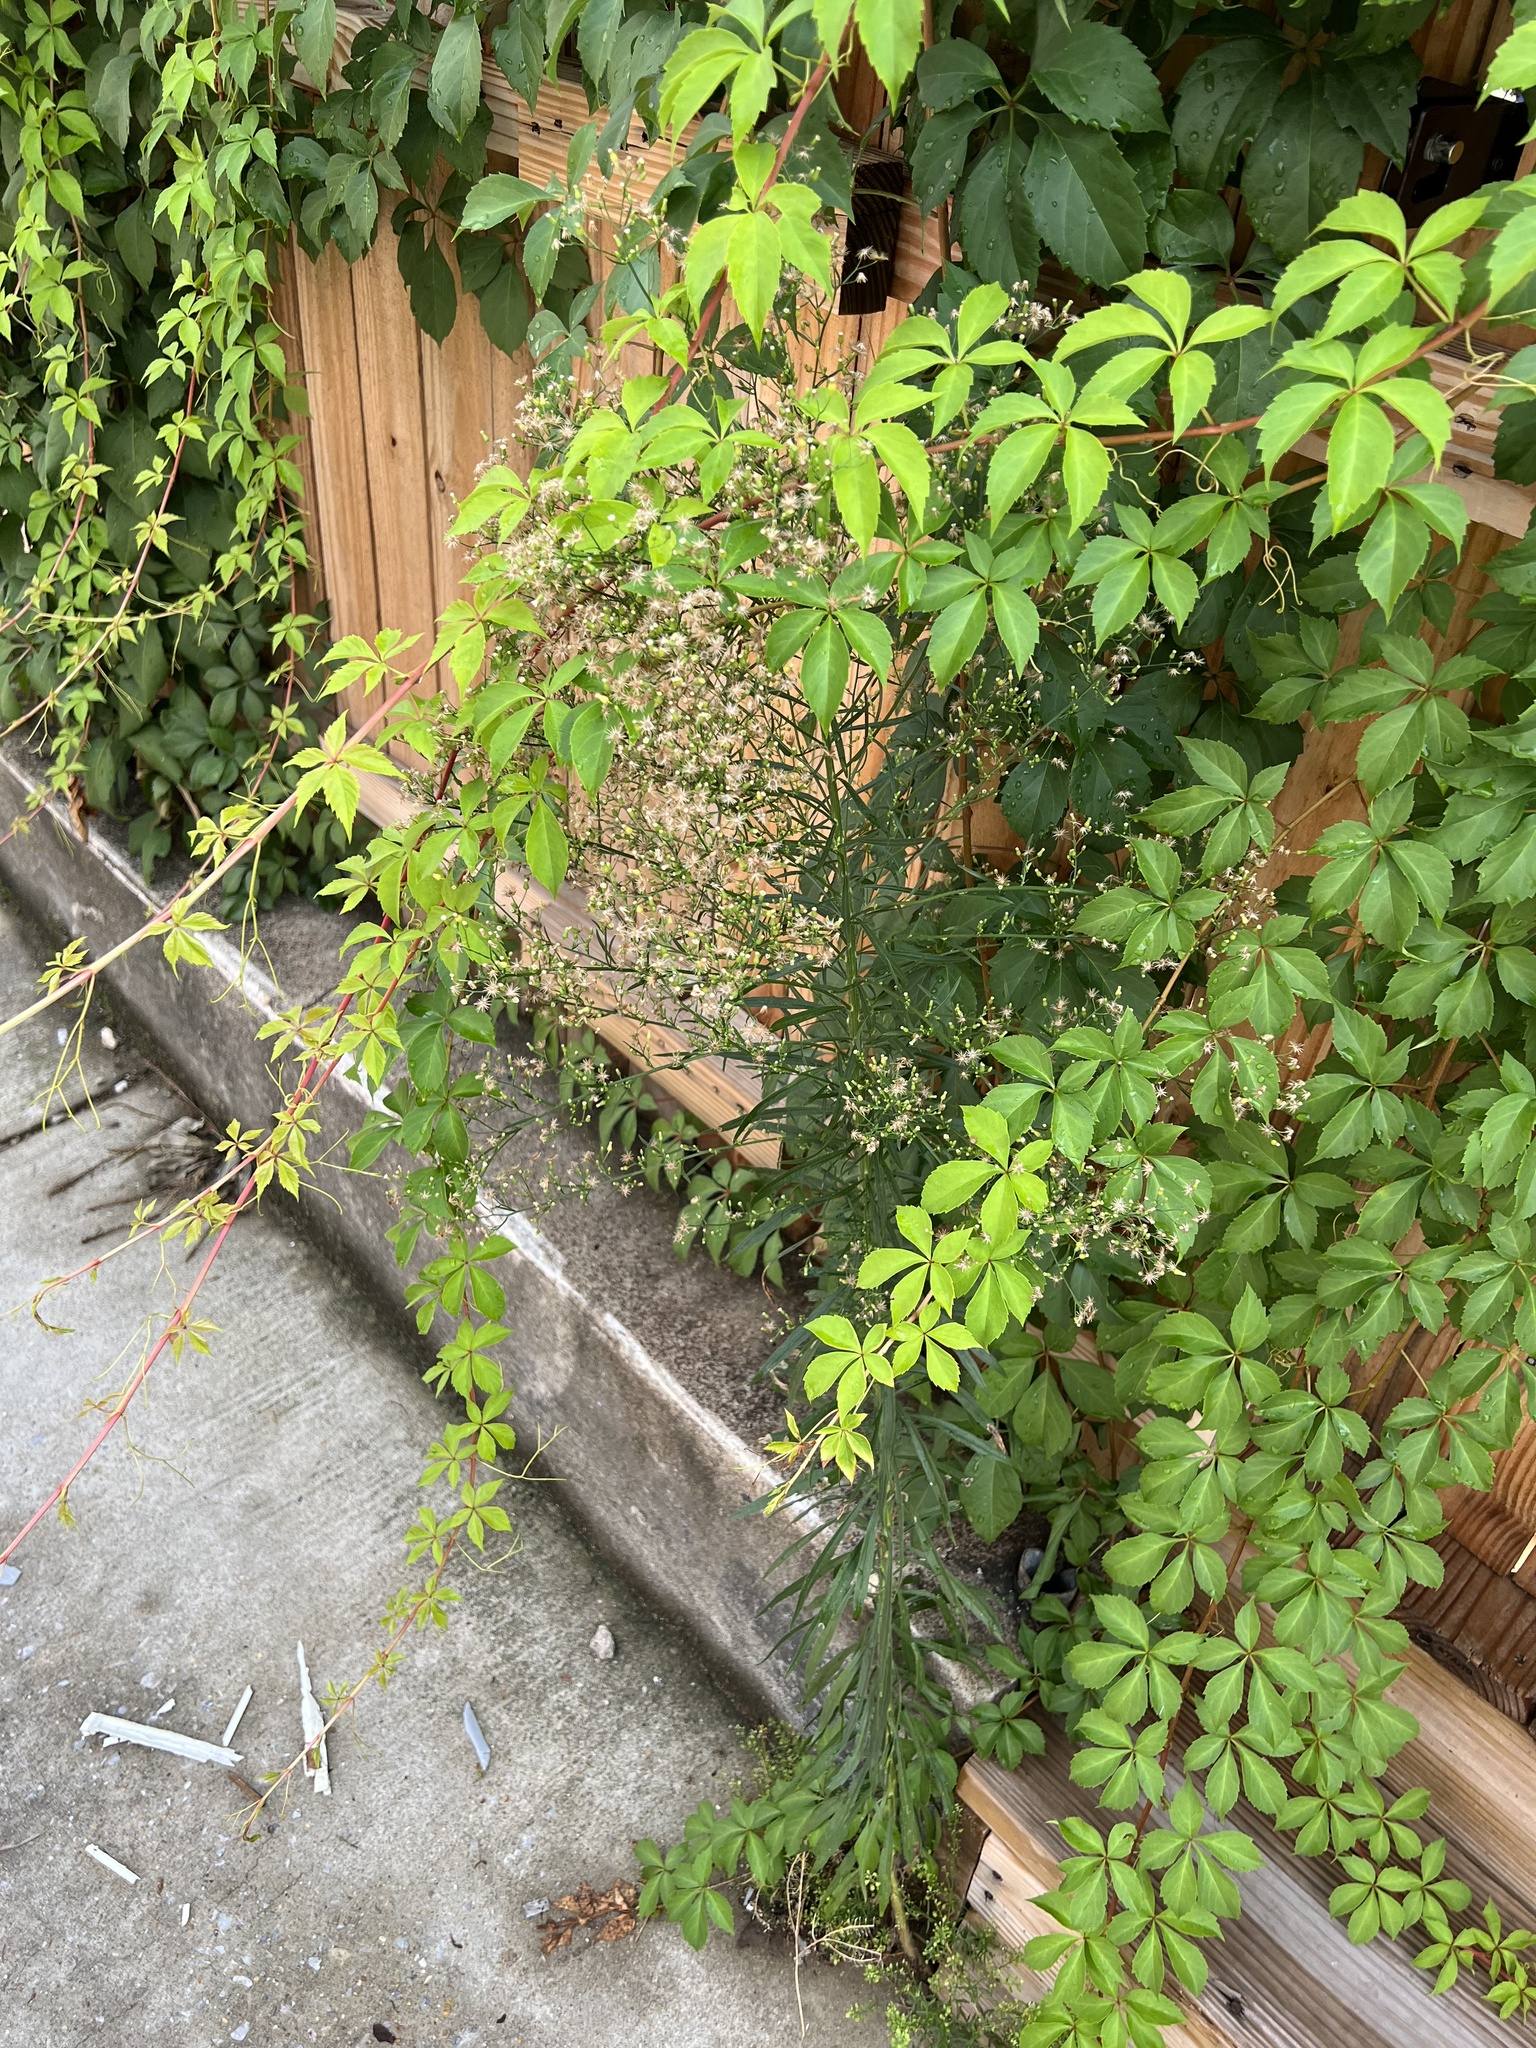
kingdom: Plantae
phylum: Tracheophyta
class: Magnoliopsida
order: Asterales
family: Asteraceae
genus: Erigeron
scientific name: Erigeron canadensis
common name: Canadian fleabane
